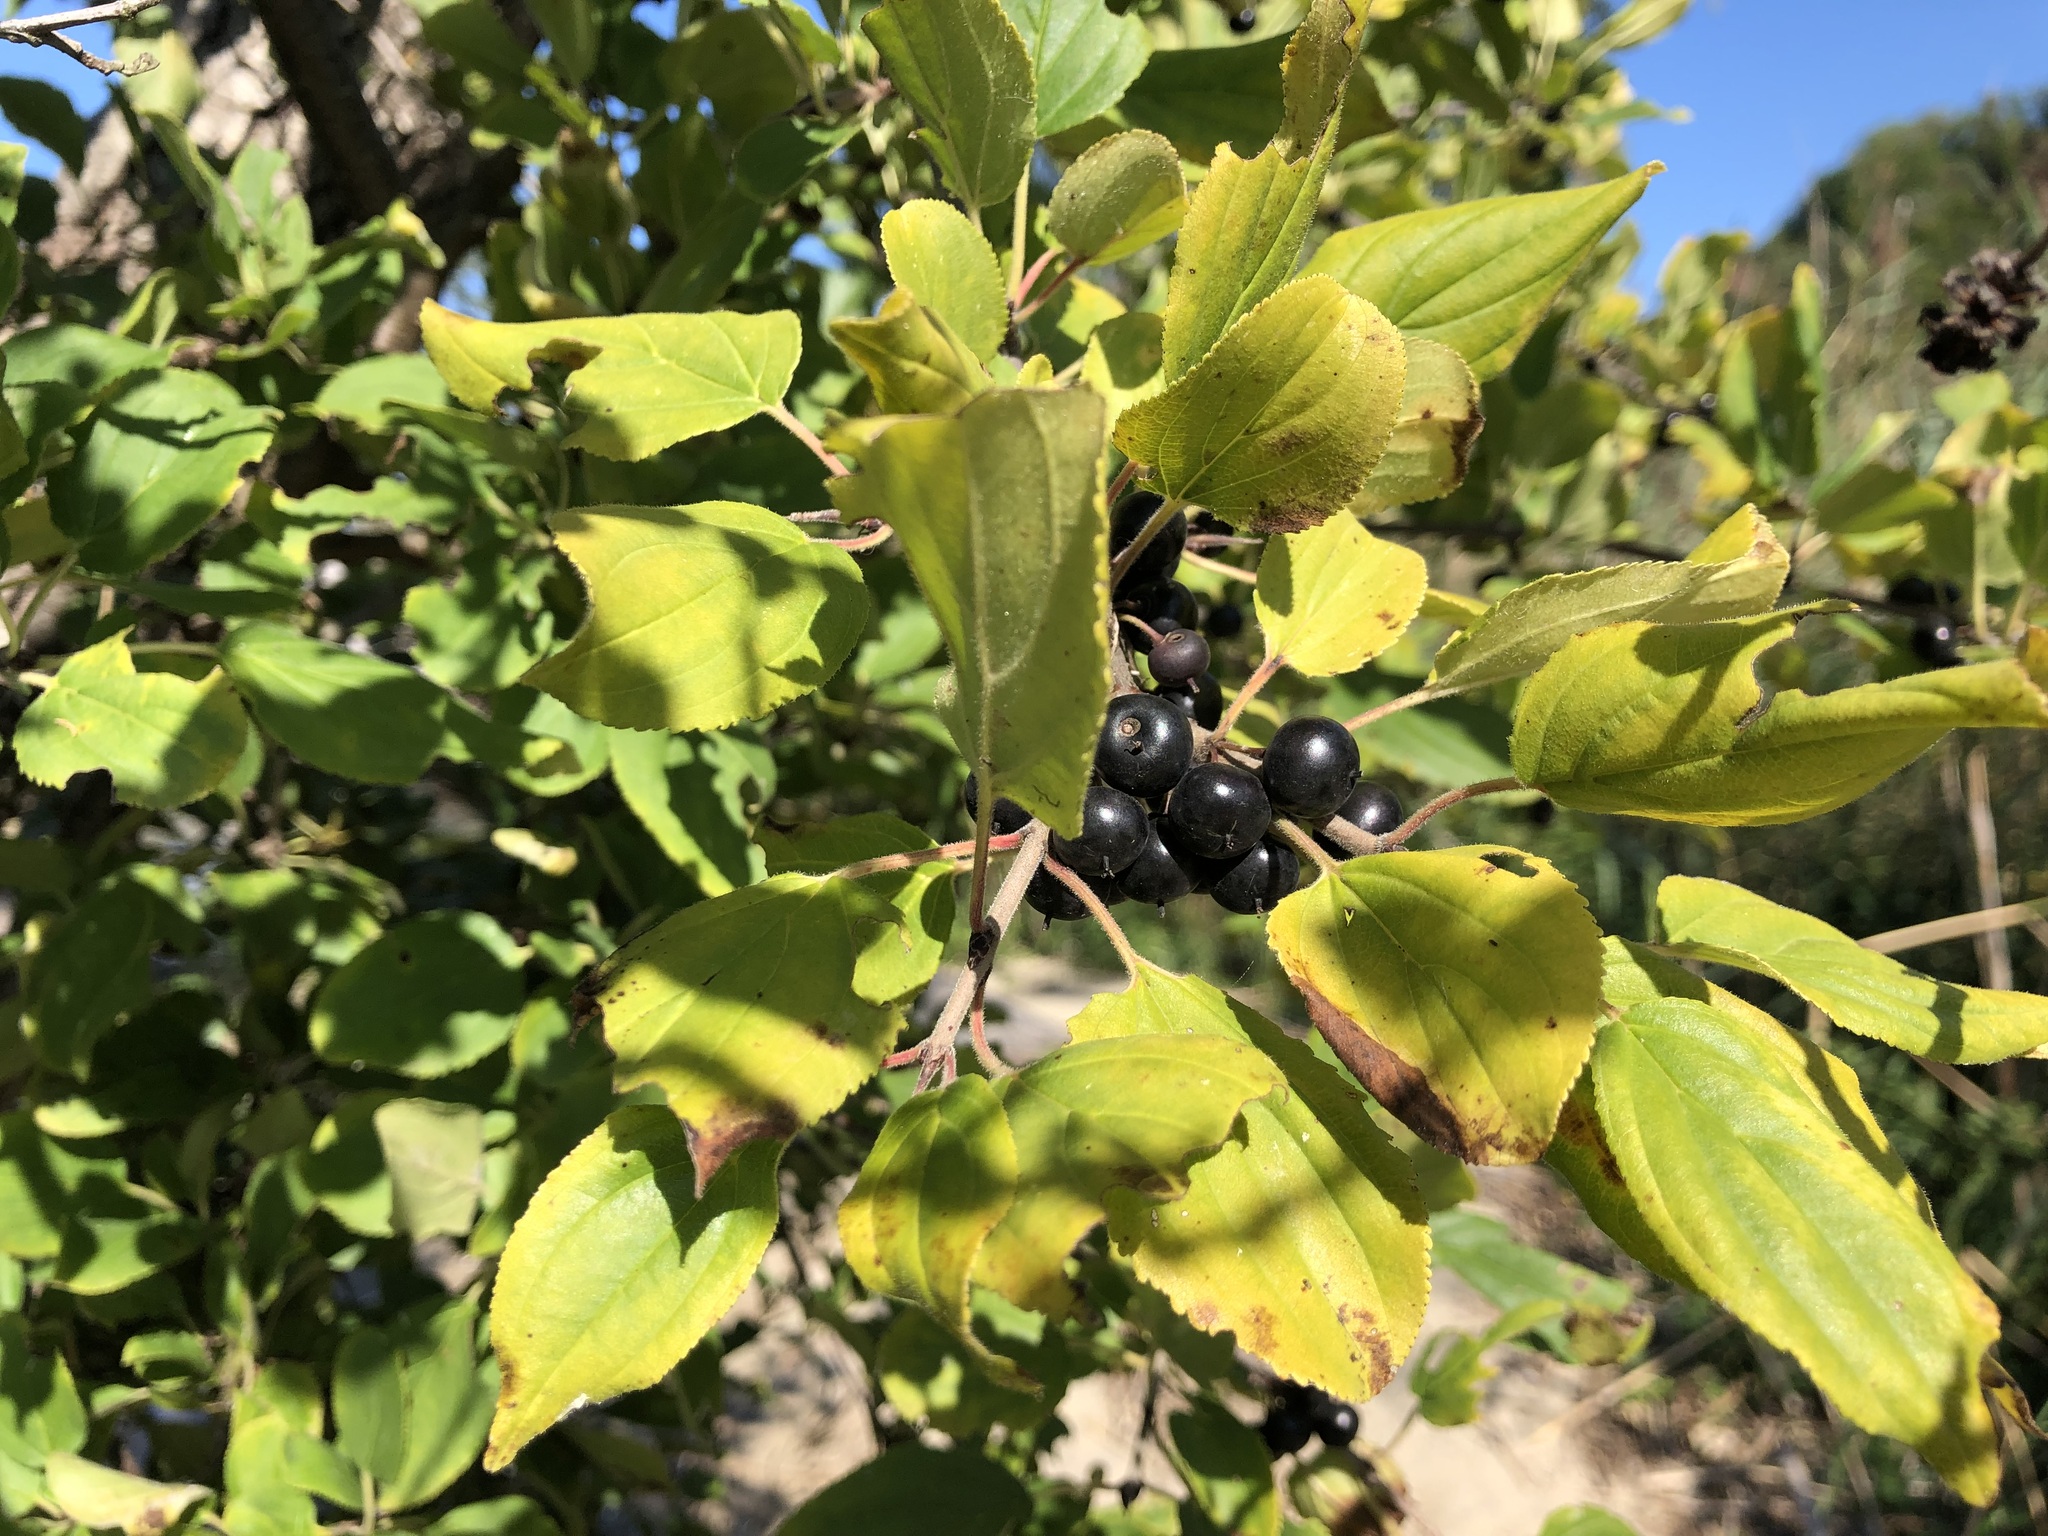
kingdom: Plantae
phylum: Tracheophyta
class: Magnoliopsida
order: Rosales
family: Rhamnaceae
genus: Rhamnus
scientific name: Rhamnus cathartica
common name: Common buckthorn
